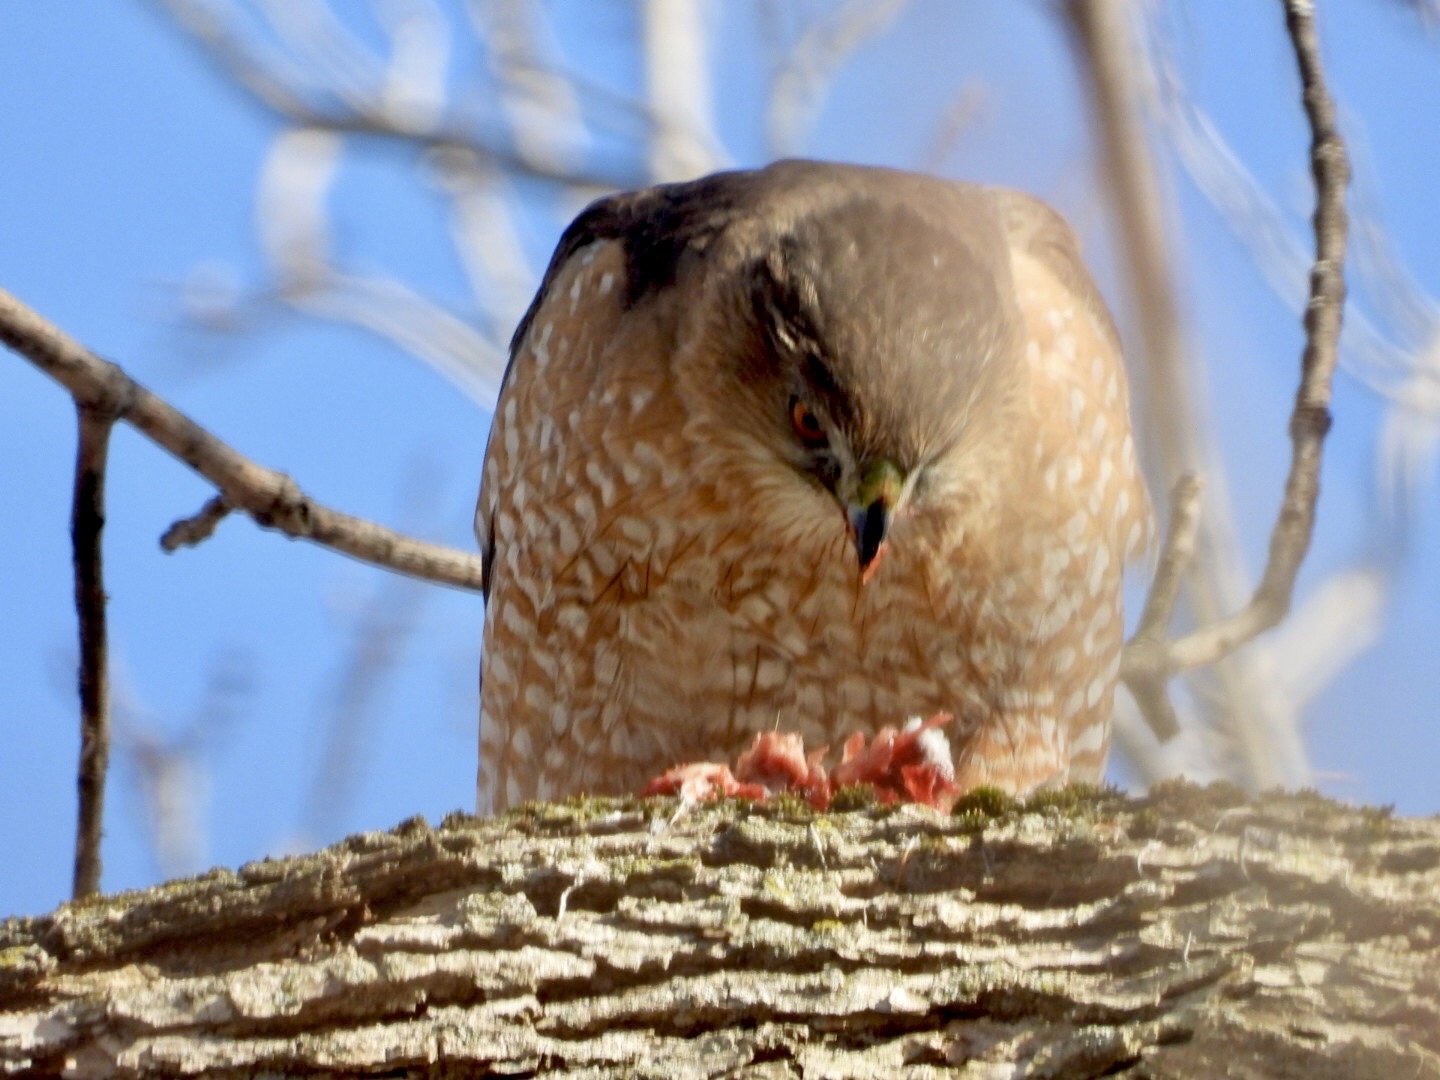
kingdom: Animalia
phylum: Chordata
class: Aves
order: Accipitriformes
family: Accipitridae
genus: Accipiter
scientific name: Accipiter cooperii
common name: Cooper's hawk
